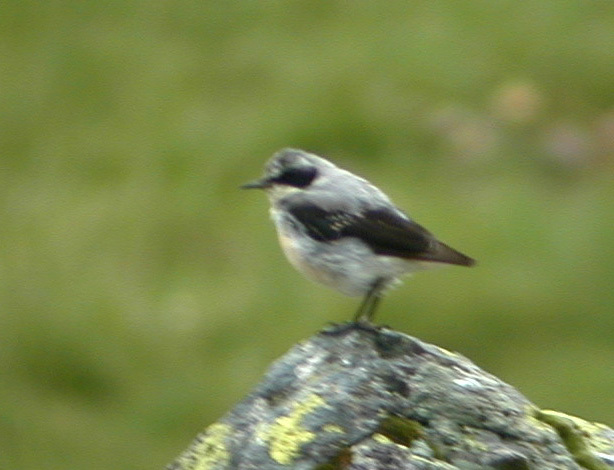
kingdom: Animalia
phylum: Chordata
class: Aves
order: Passeriformes
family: Muscicapidae
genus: Oenanthe
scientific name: Oenanthe oenanthe
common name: Northern wheatear
